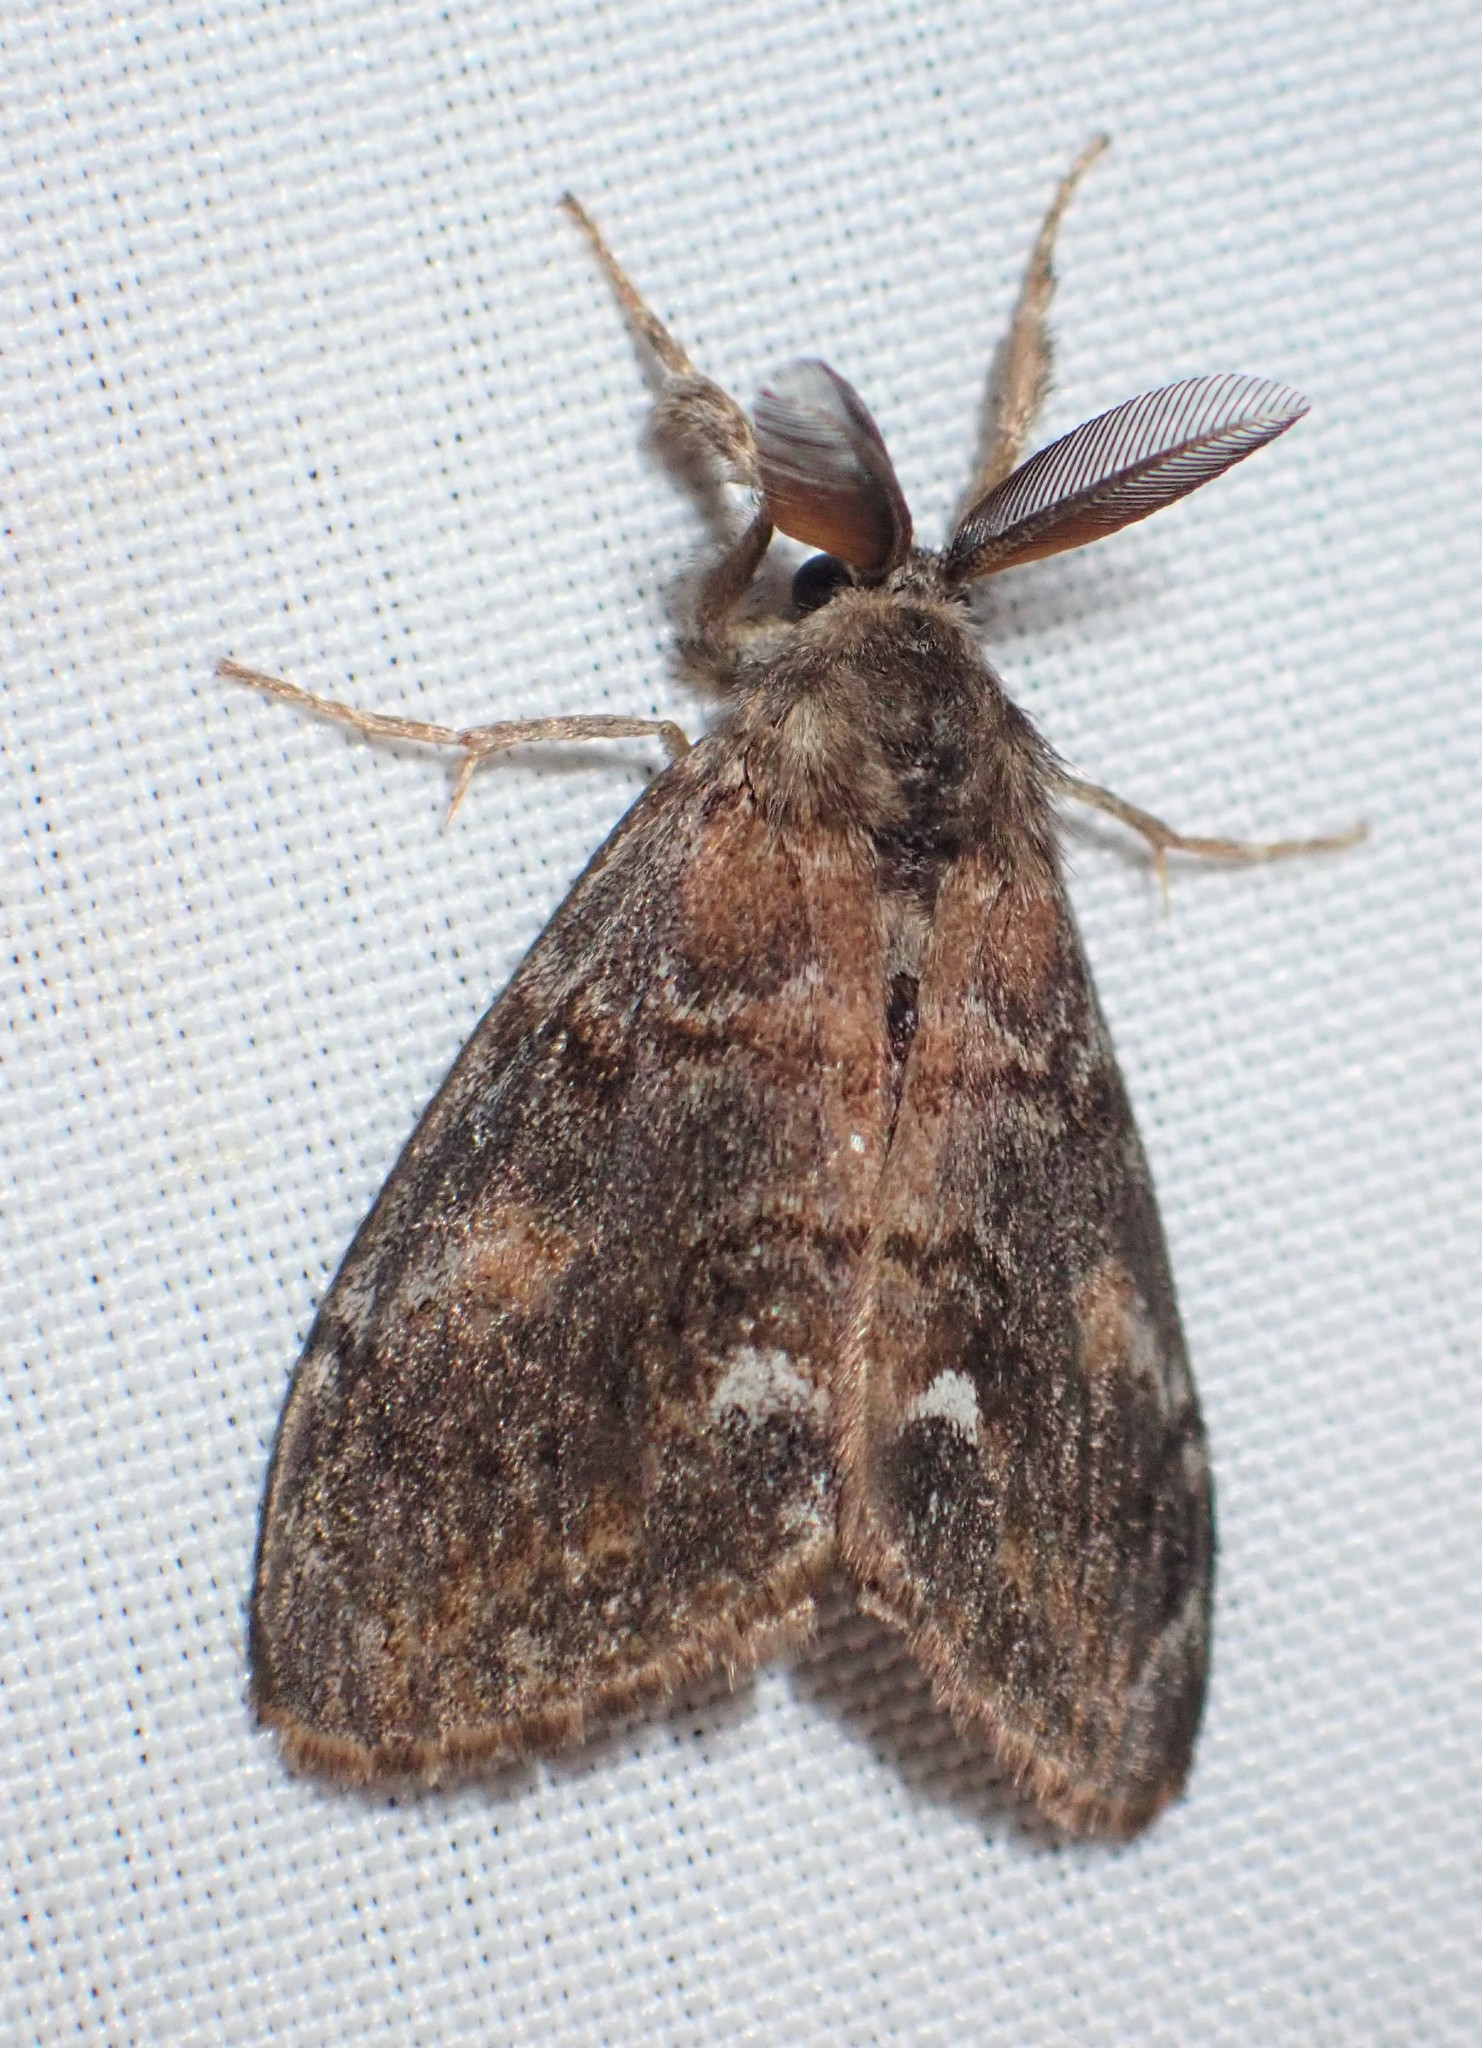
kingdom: Animalia
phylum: Arthropoda
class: Insecta
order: Lepidoptera
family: Erebidae
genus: Orgyia
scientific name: Orgyia vetusta
